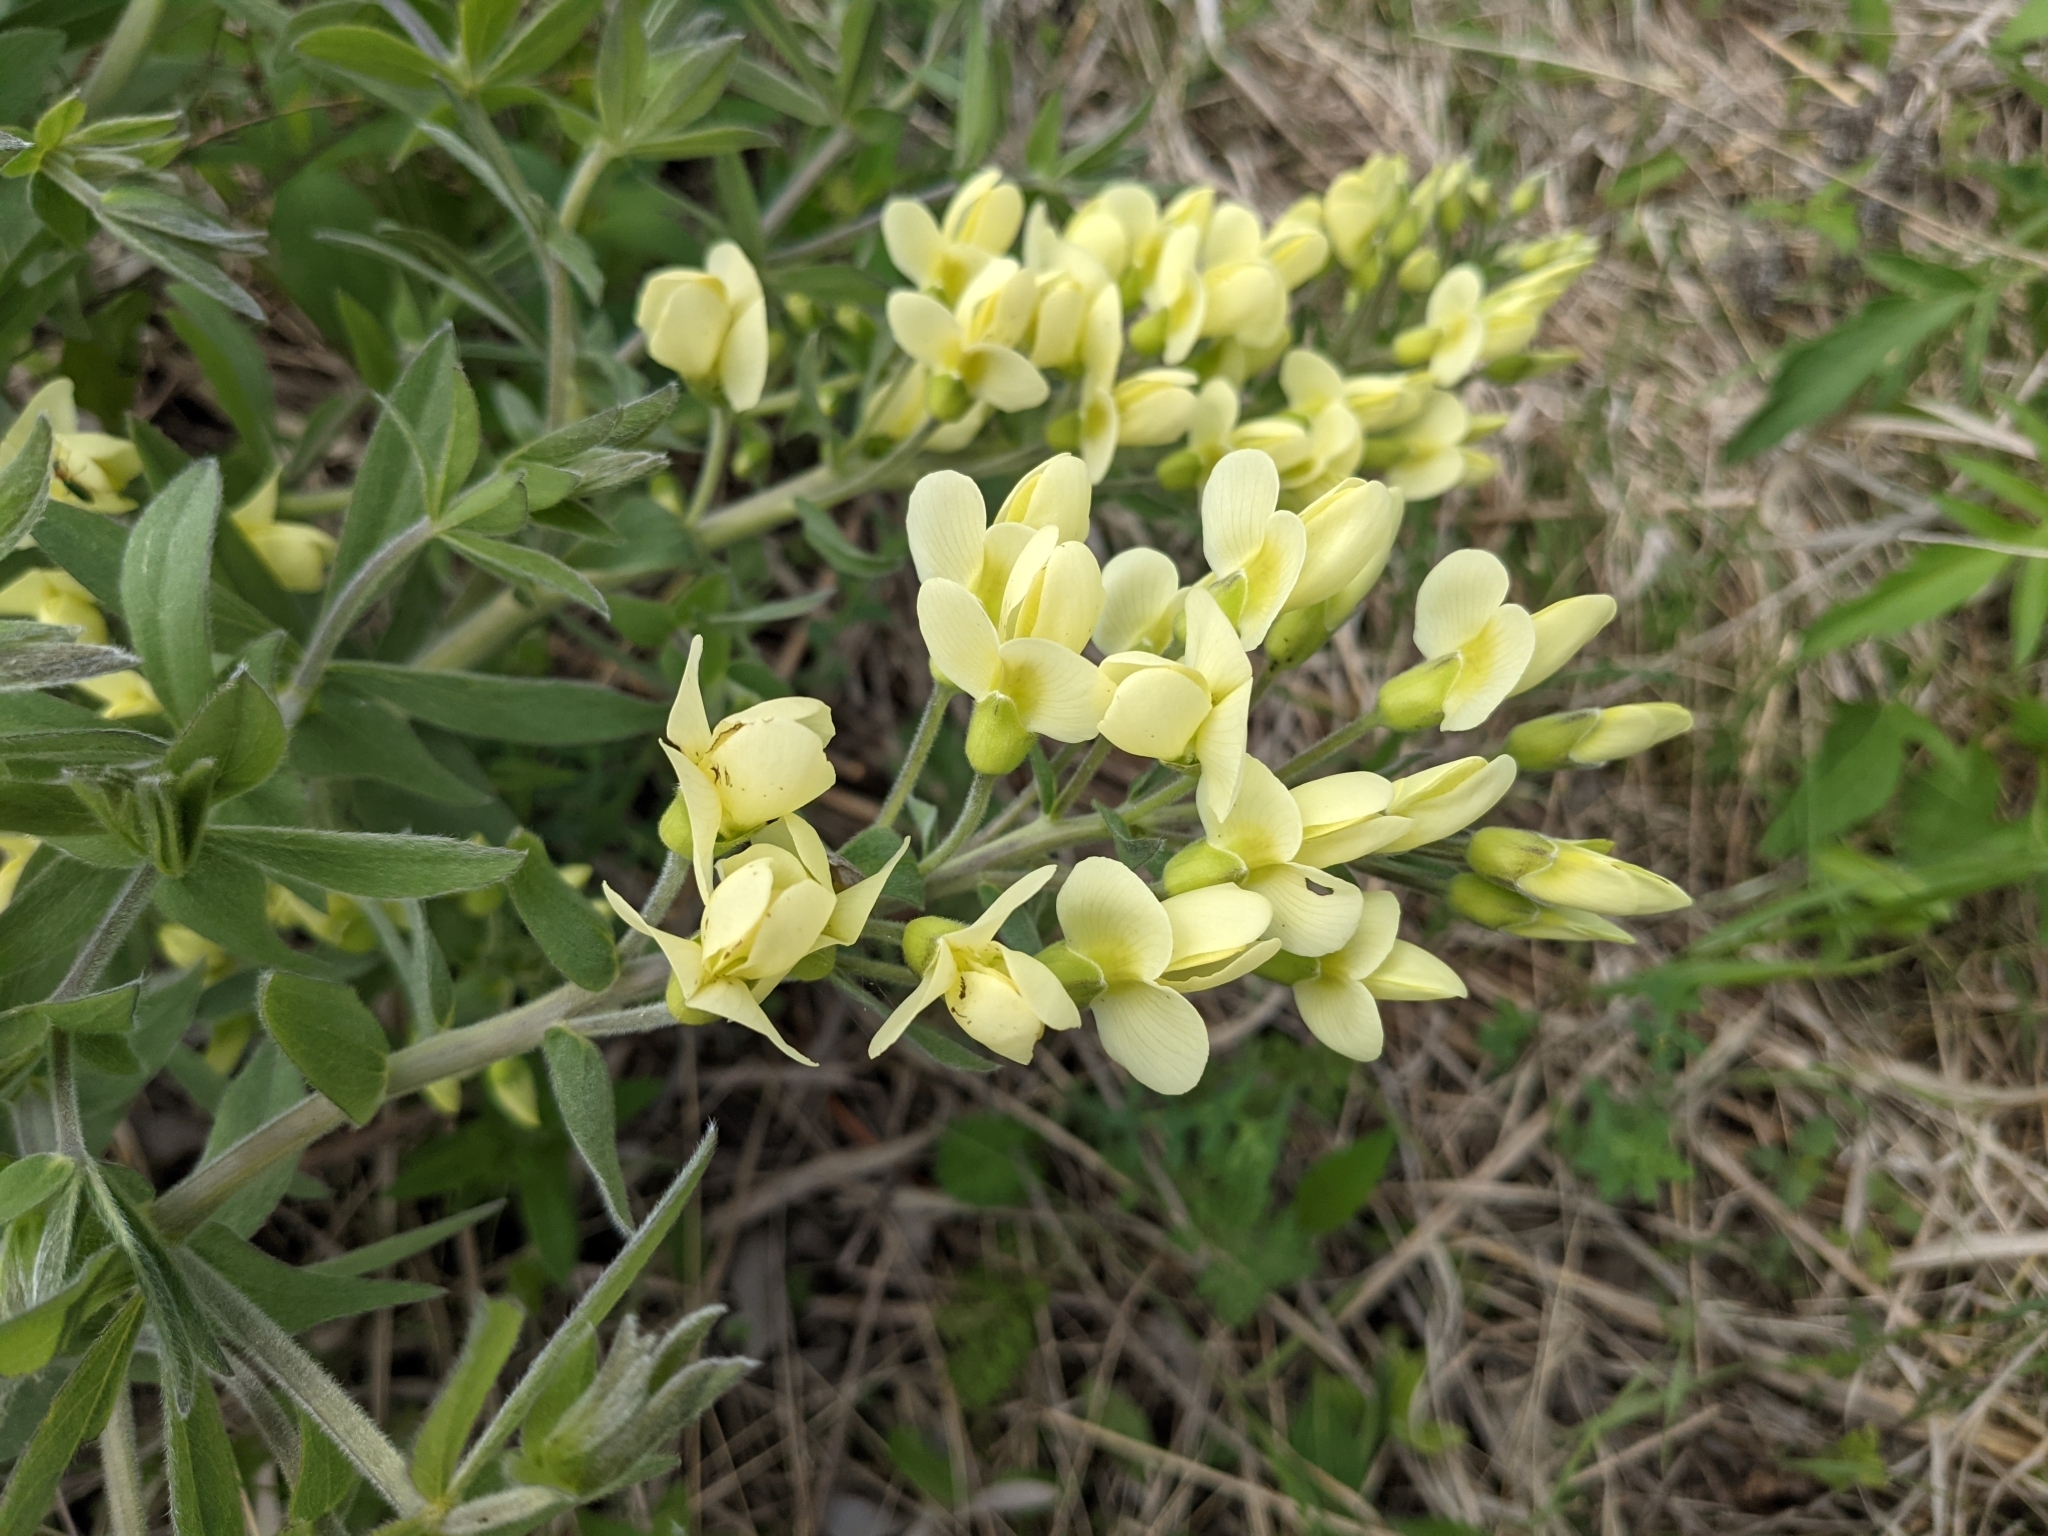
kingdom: Plantae
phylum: Tracheophyta
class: Magnoliopsida
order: Fabales
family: Fabaceae
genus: Baptisia
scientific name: Baptisia bracteata
